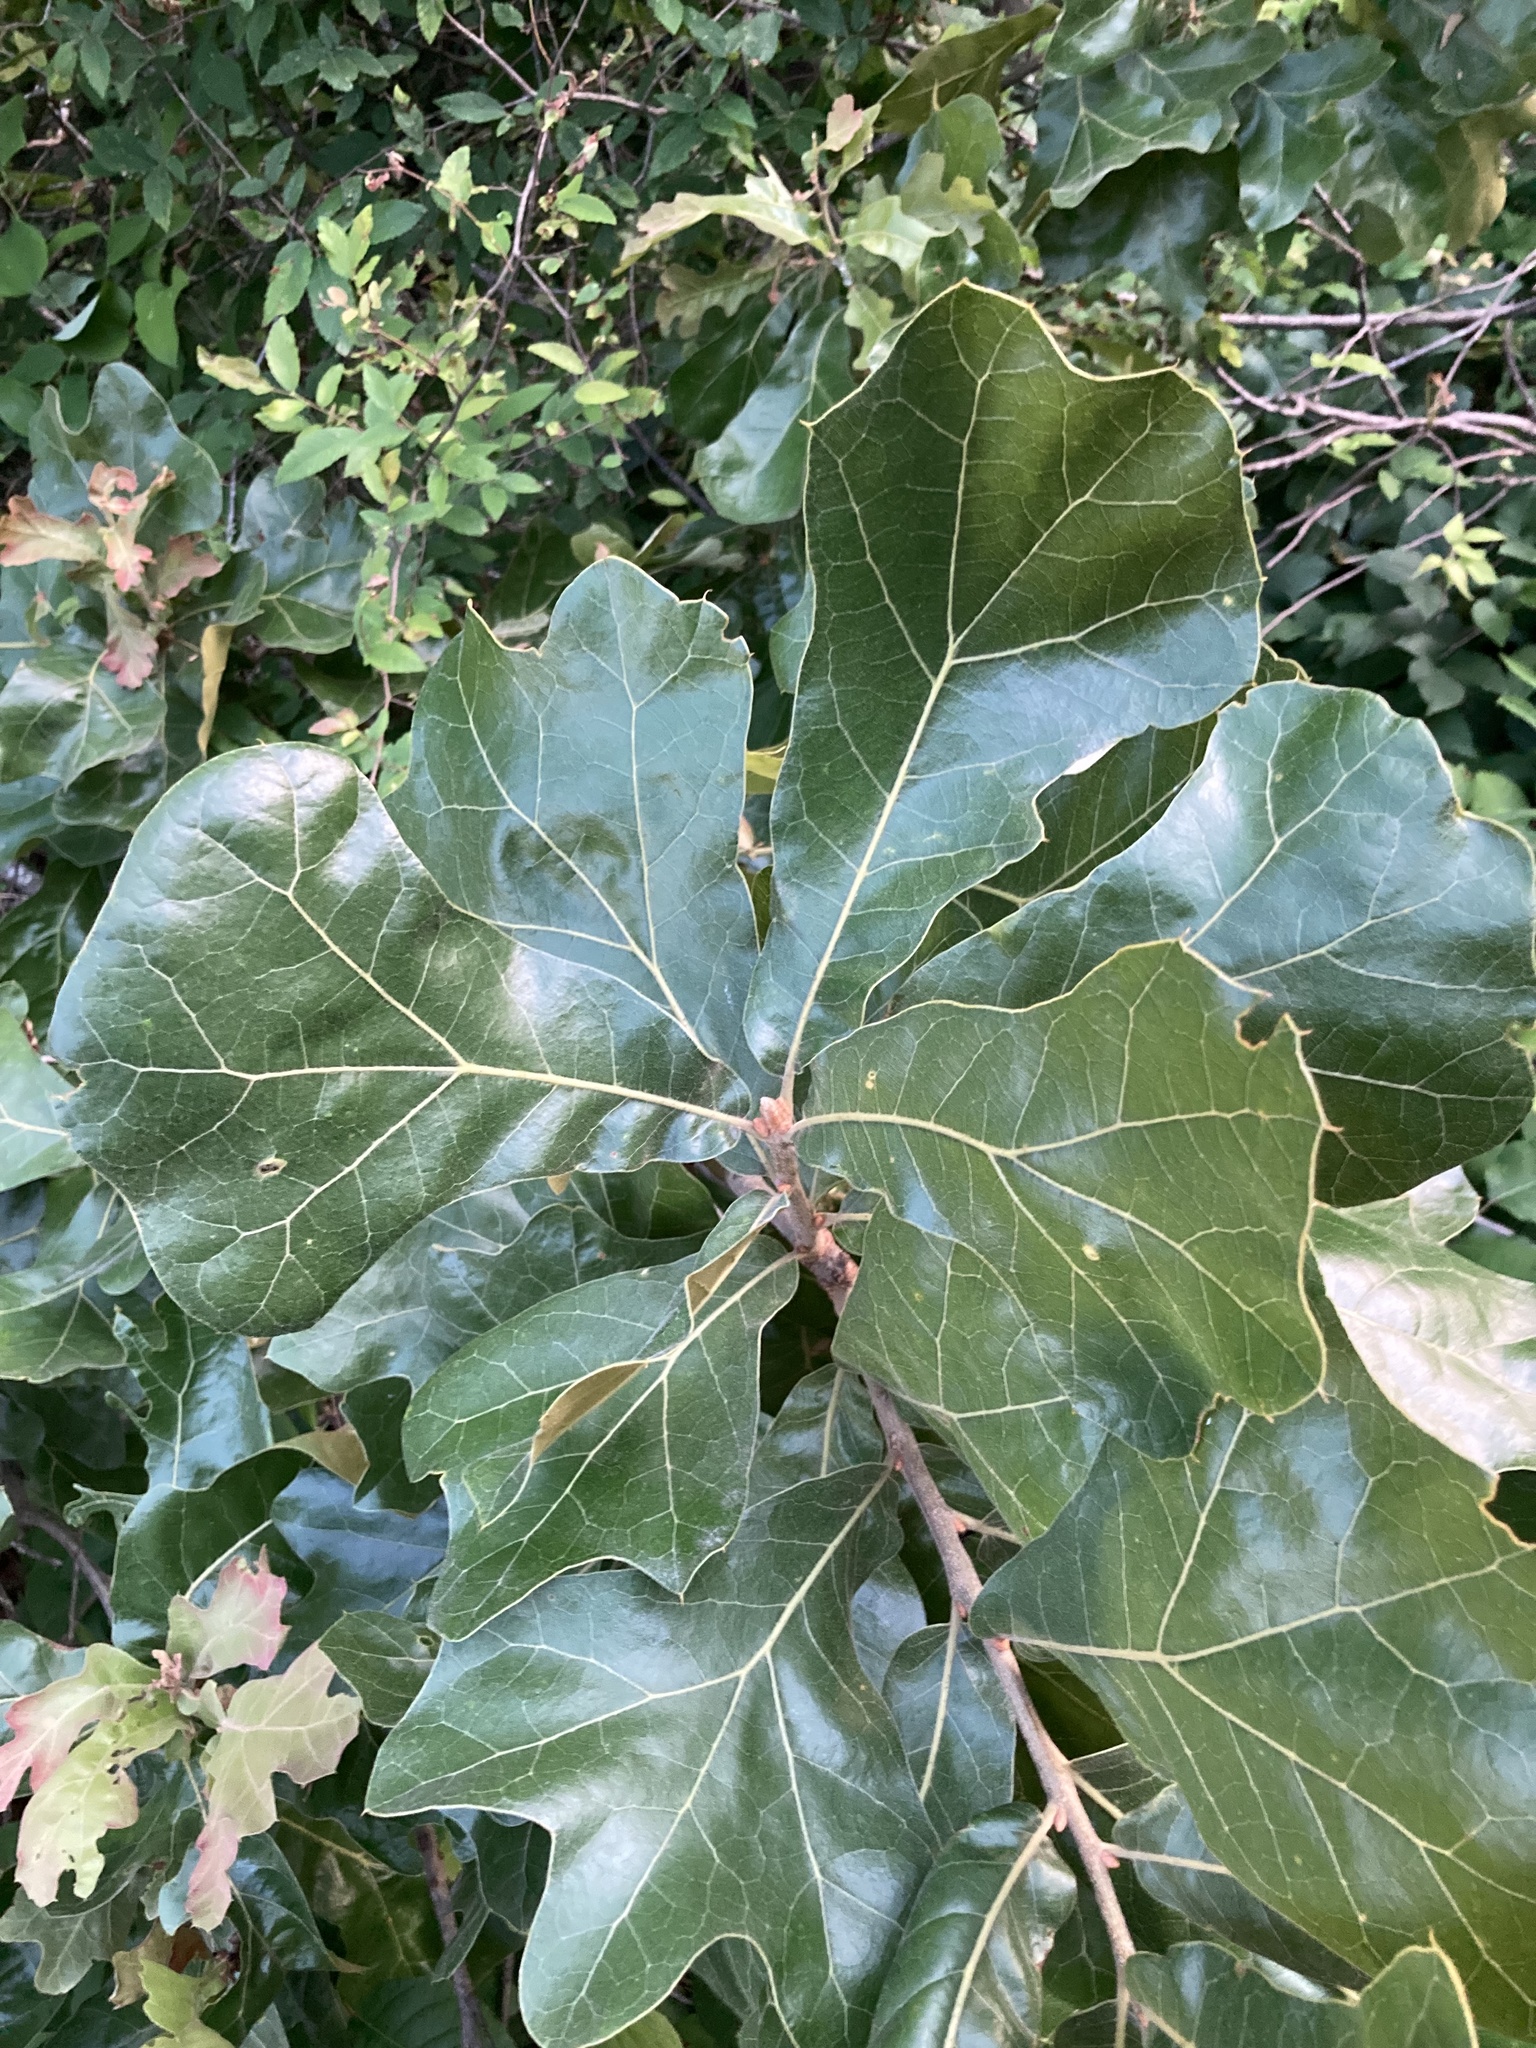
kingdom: Plantae
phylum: Tracheophyta
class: Magnoliopsida
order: Fagales
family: Fagaceae
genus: Quercus
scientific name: Quercus marilandica
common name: Blackjack oak
